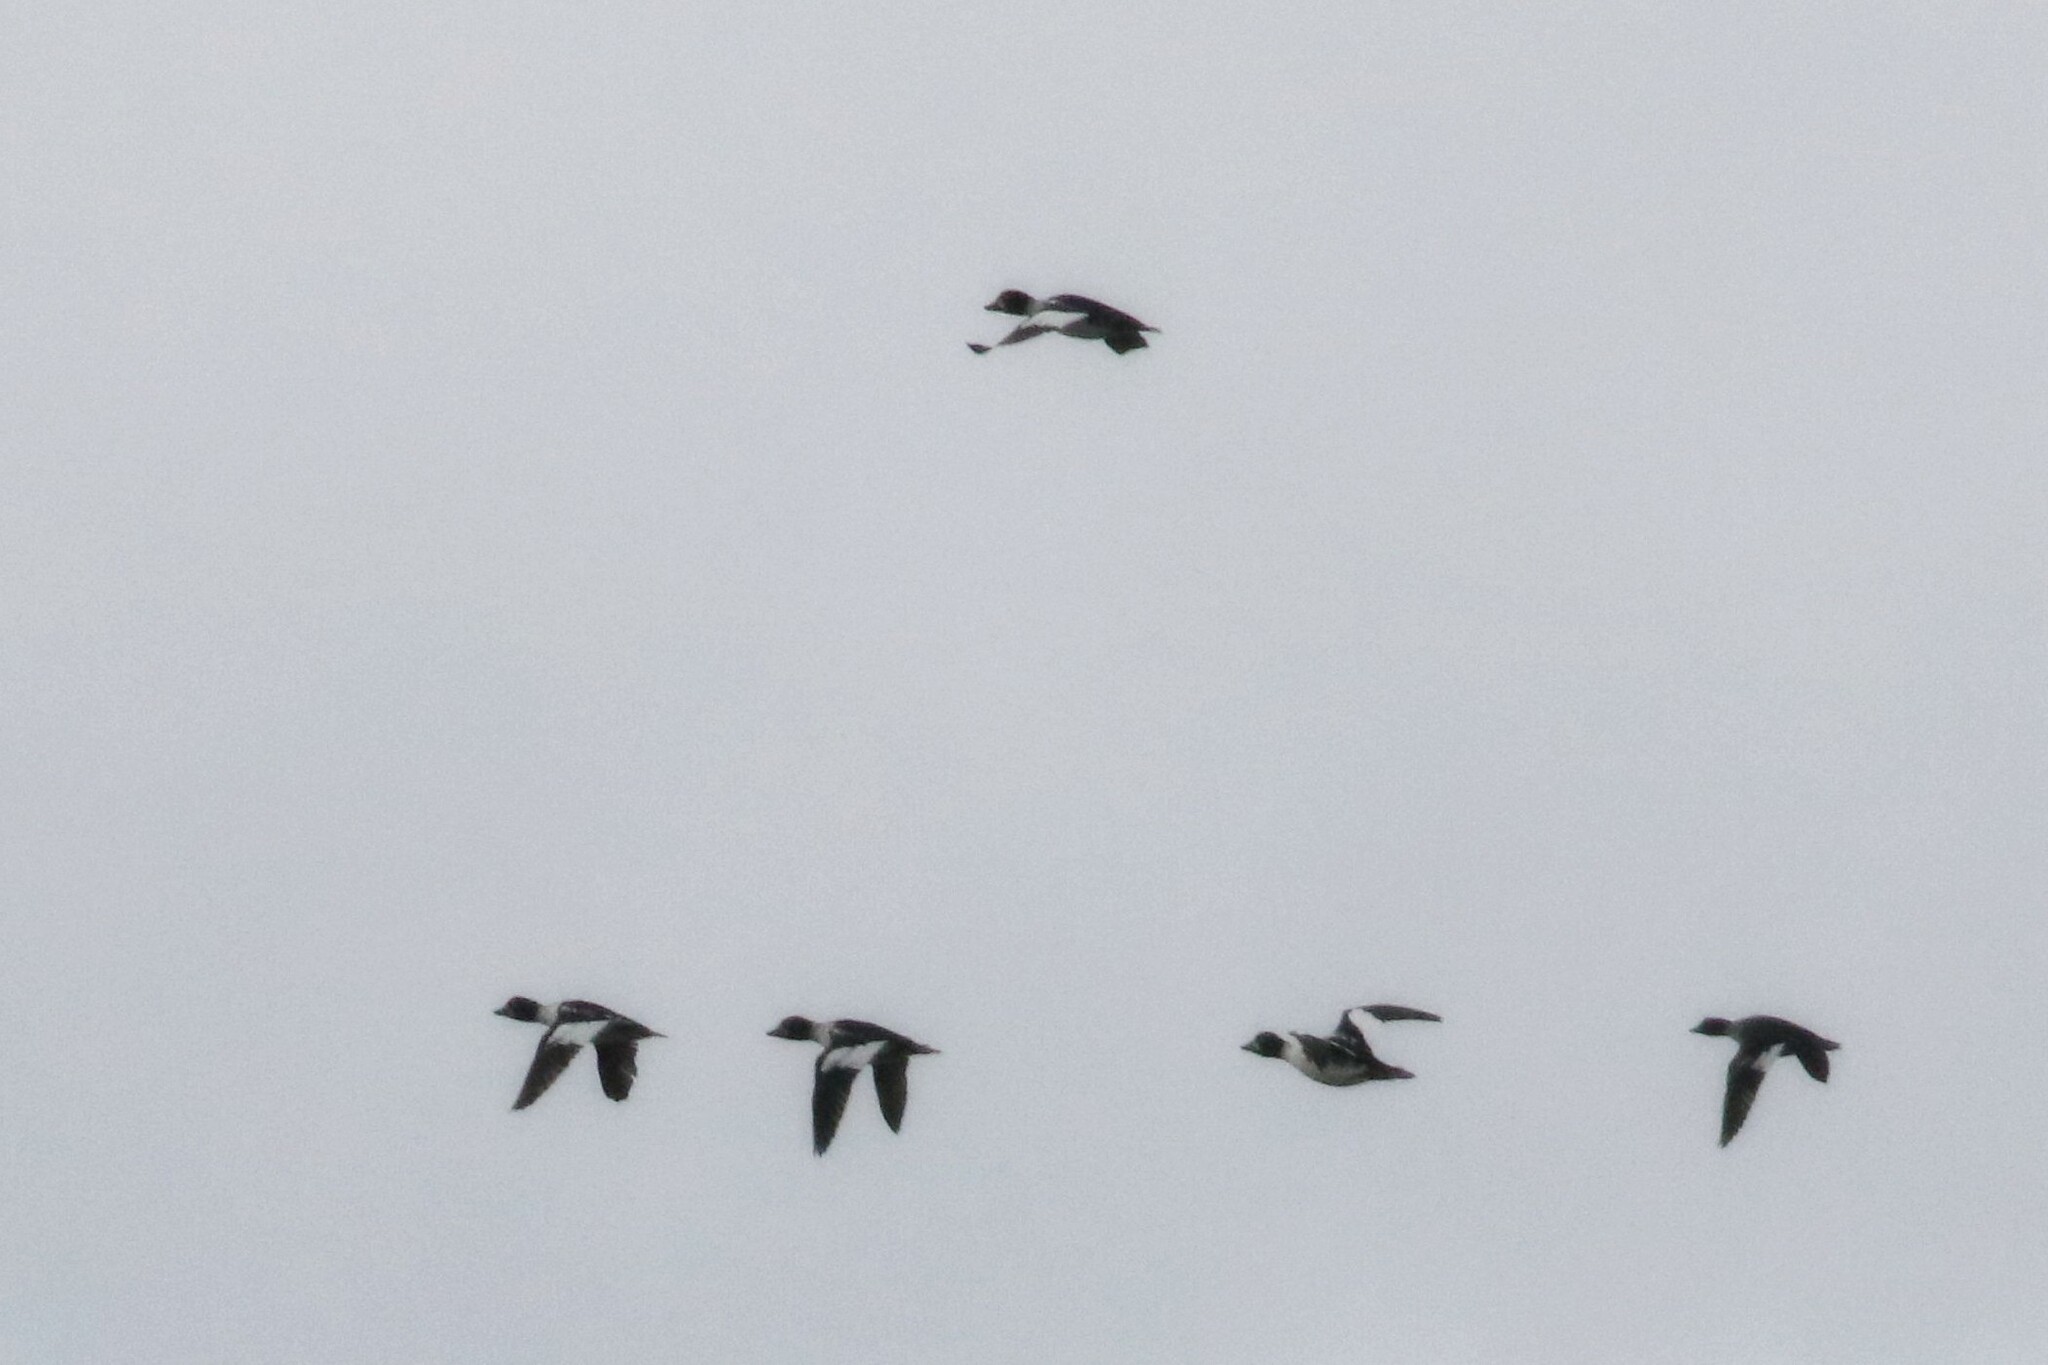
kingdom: Animalia
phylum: Chordata
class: Aves
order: Anseriformes
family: Anatidae
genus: Bucephala
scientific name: Bucephala clangula
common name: Common goldeneye
